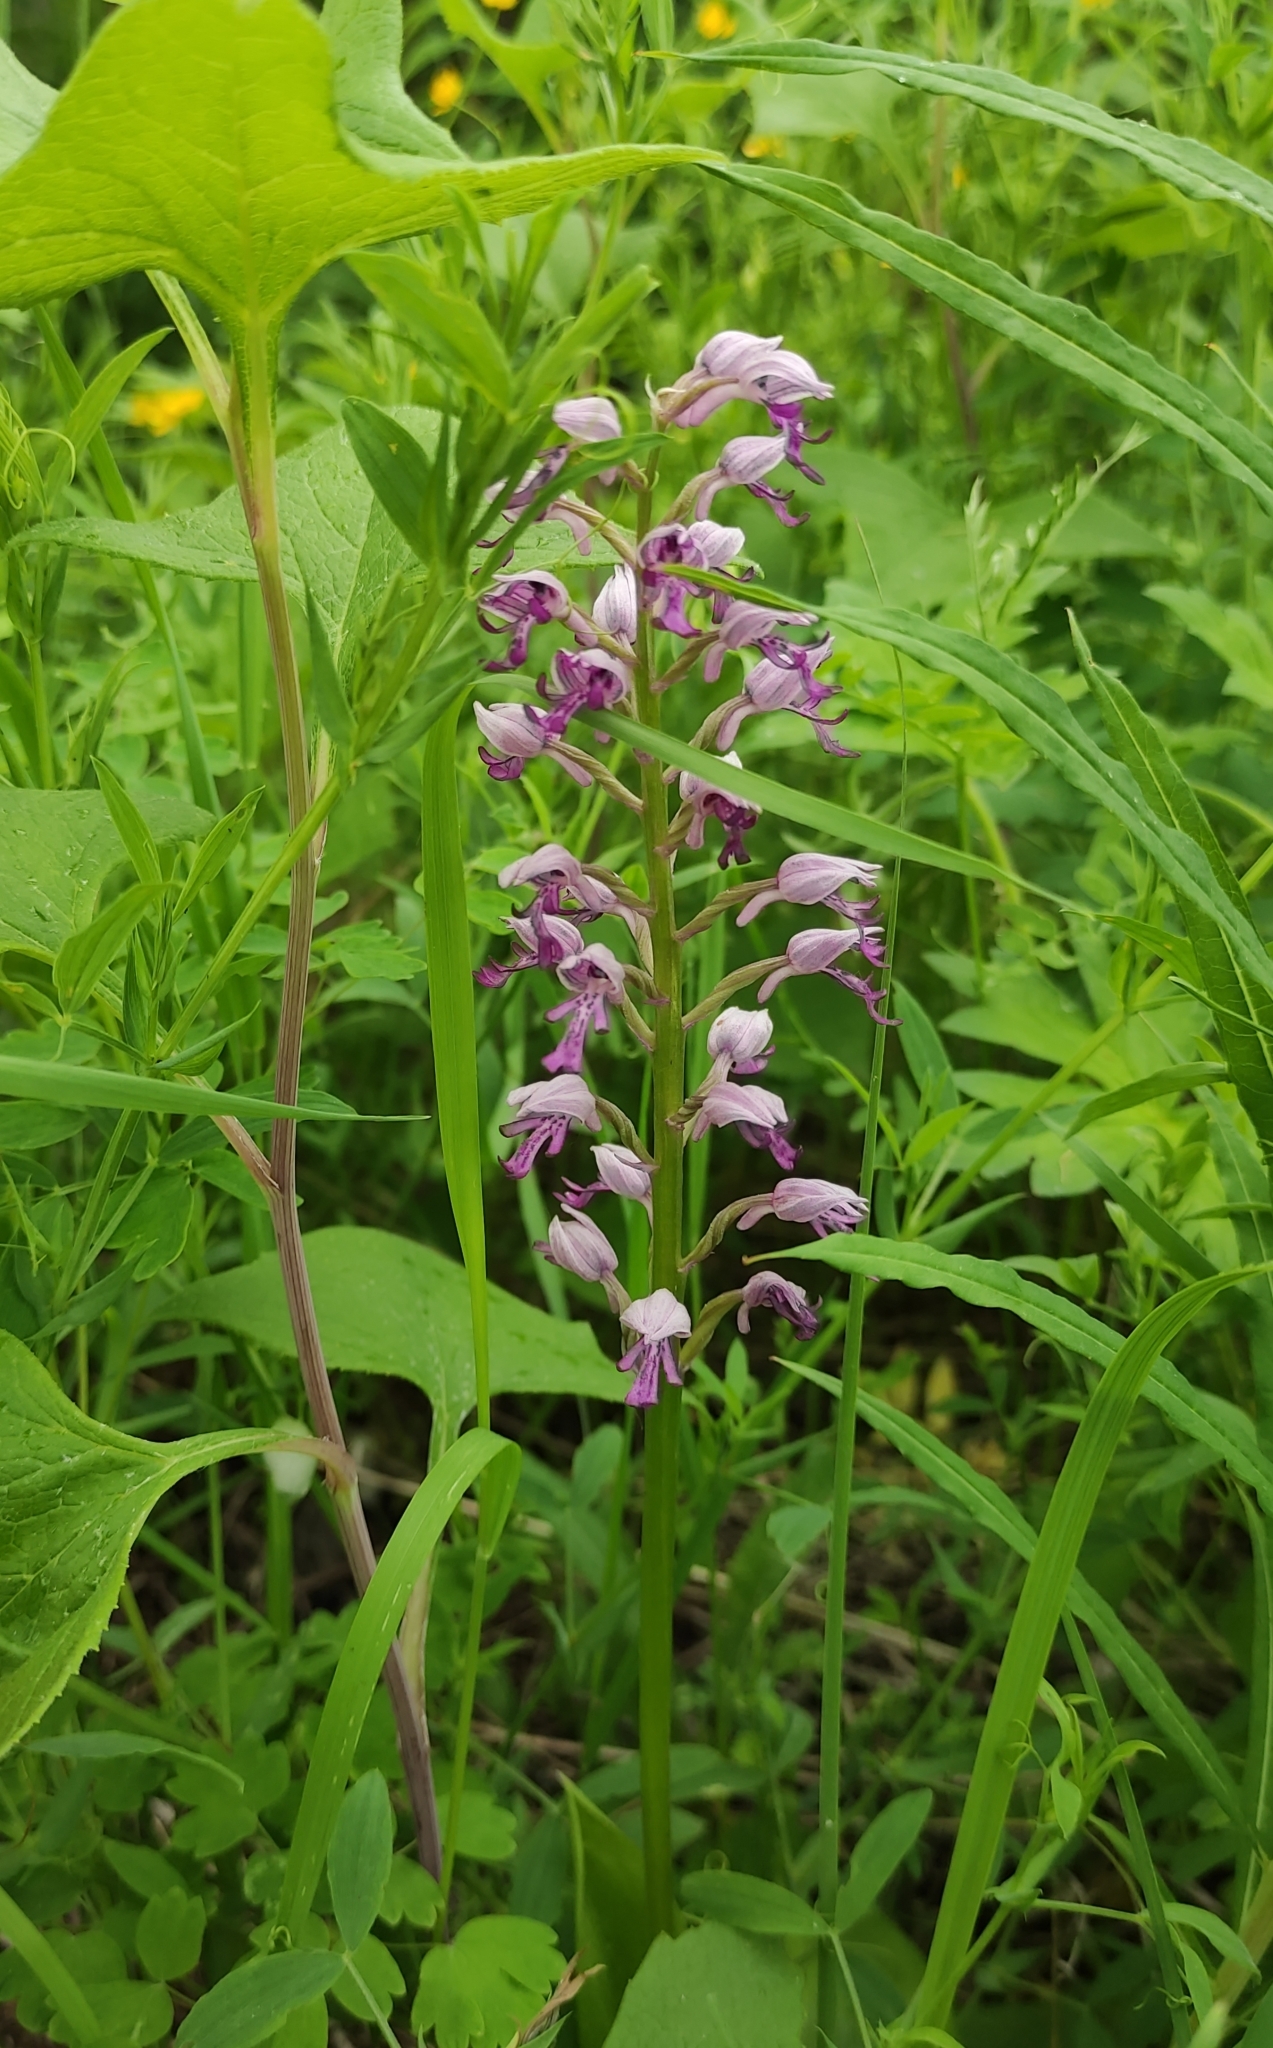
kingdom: Plantae
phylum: Tracheophyta
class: Liliopsida
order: Asparagales
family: Orchidaceae
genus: Orchis
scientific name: Orchis militaris
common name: Military orchid
